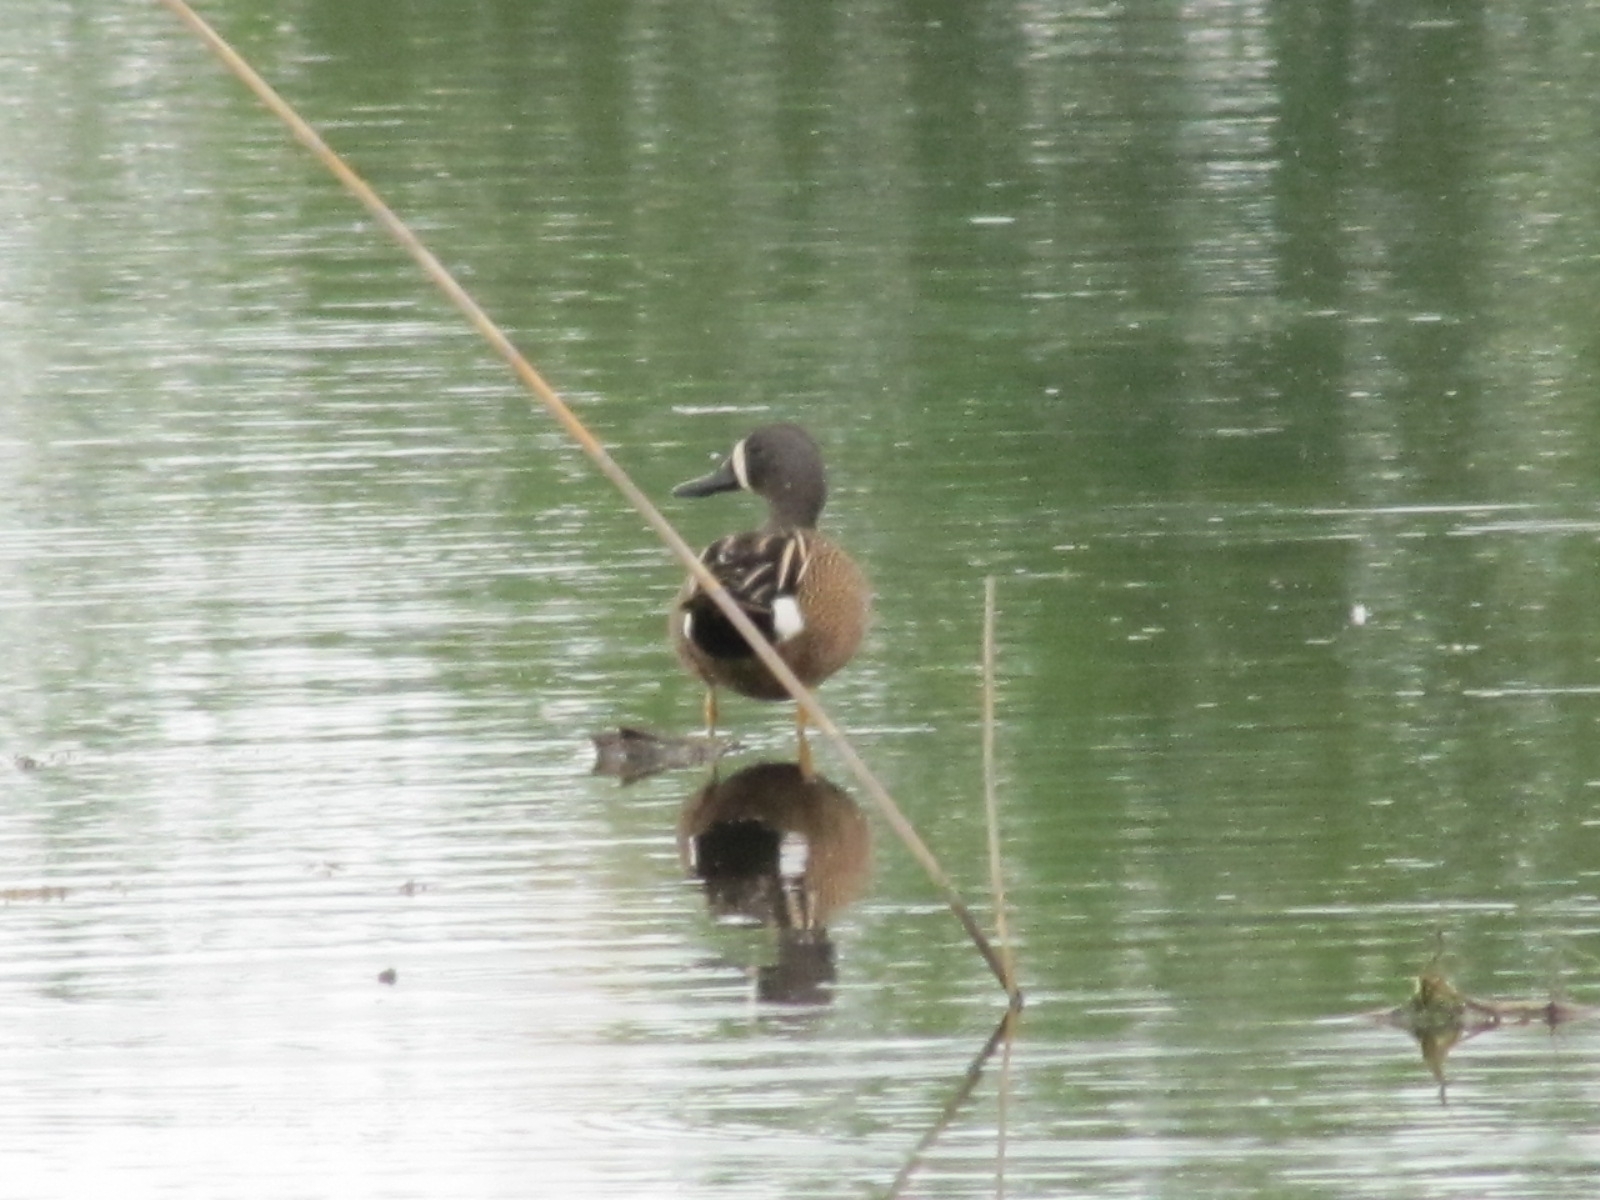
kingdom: Animalia
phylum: Chordata
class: Aves
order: Anseriformes
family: Anatidae
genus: Spatula
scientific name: Spatula discors
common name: Blue-winged teal
